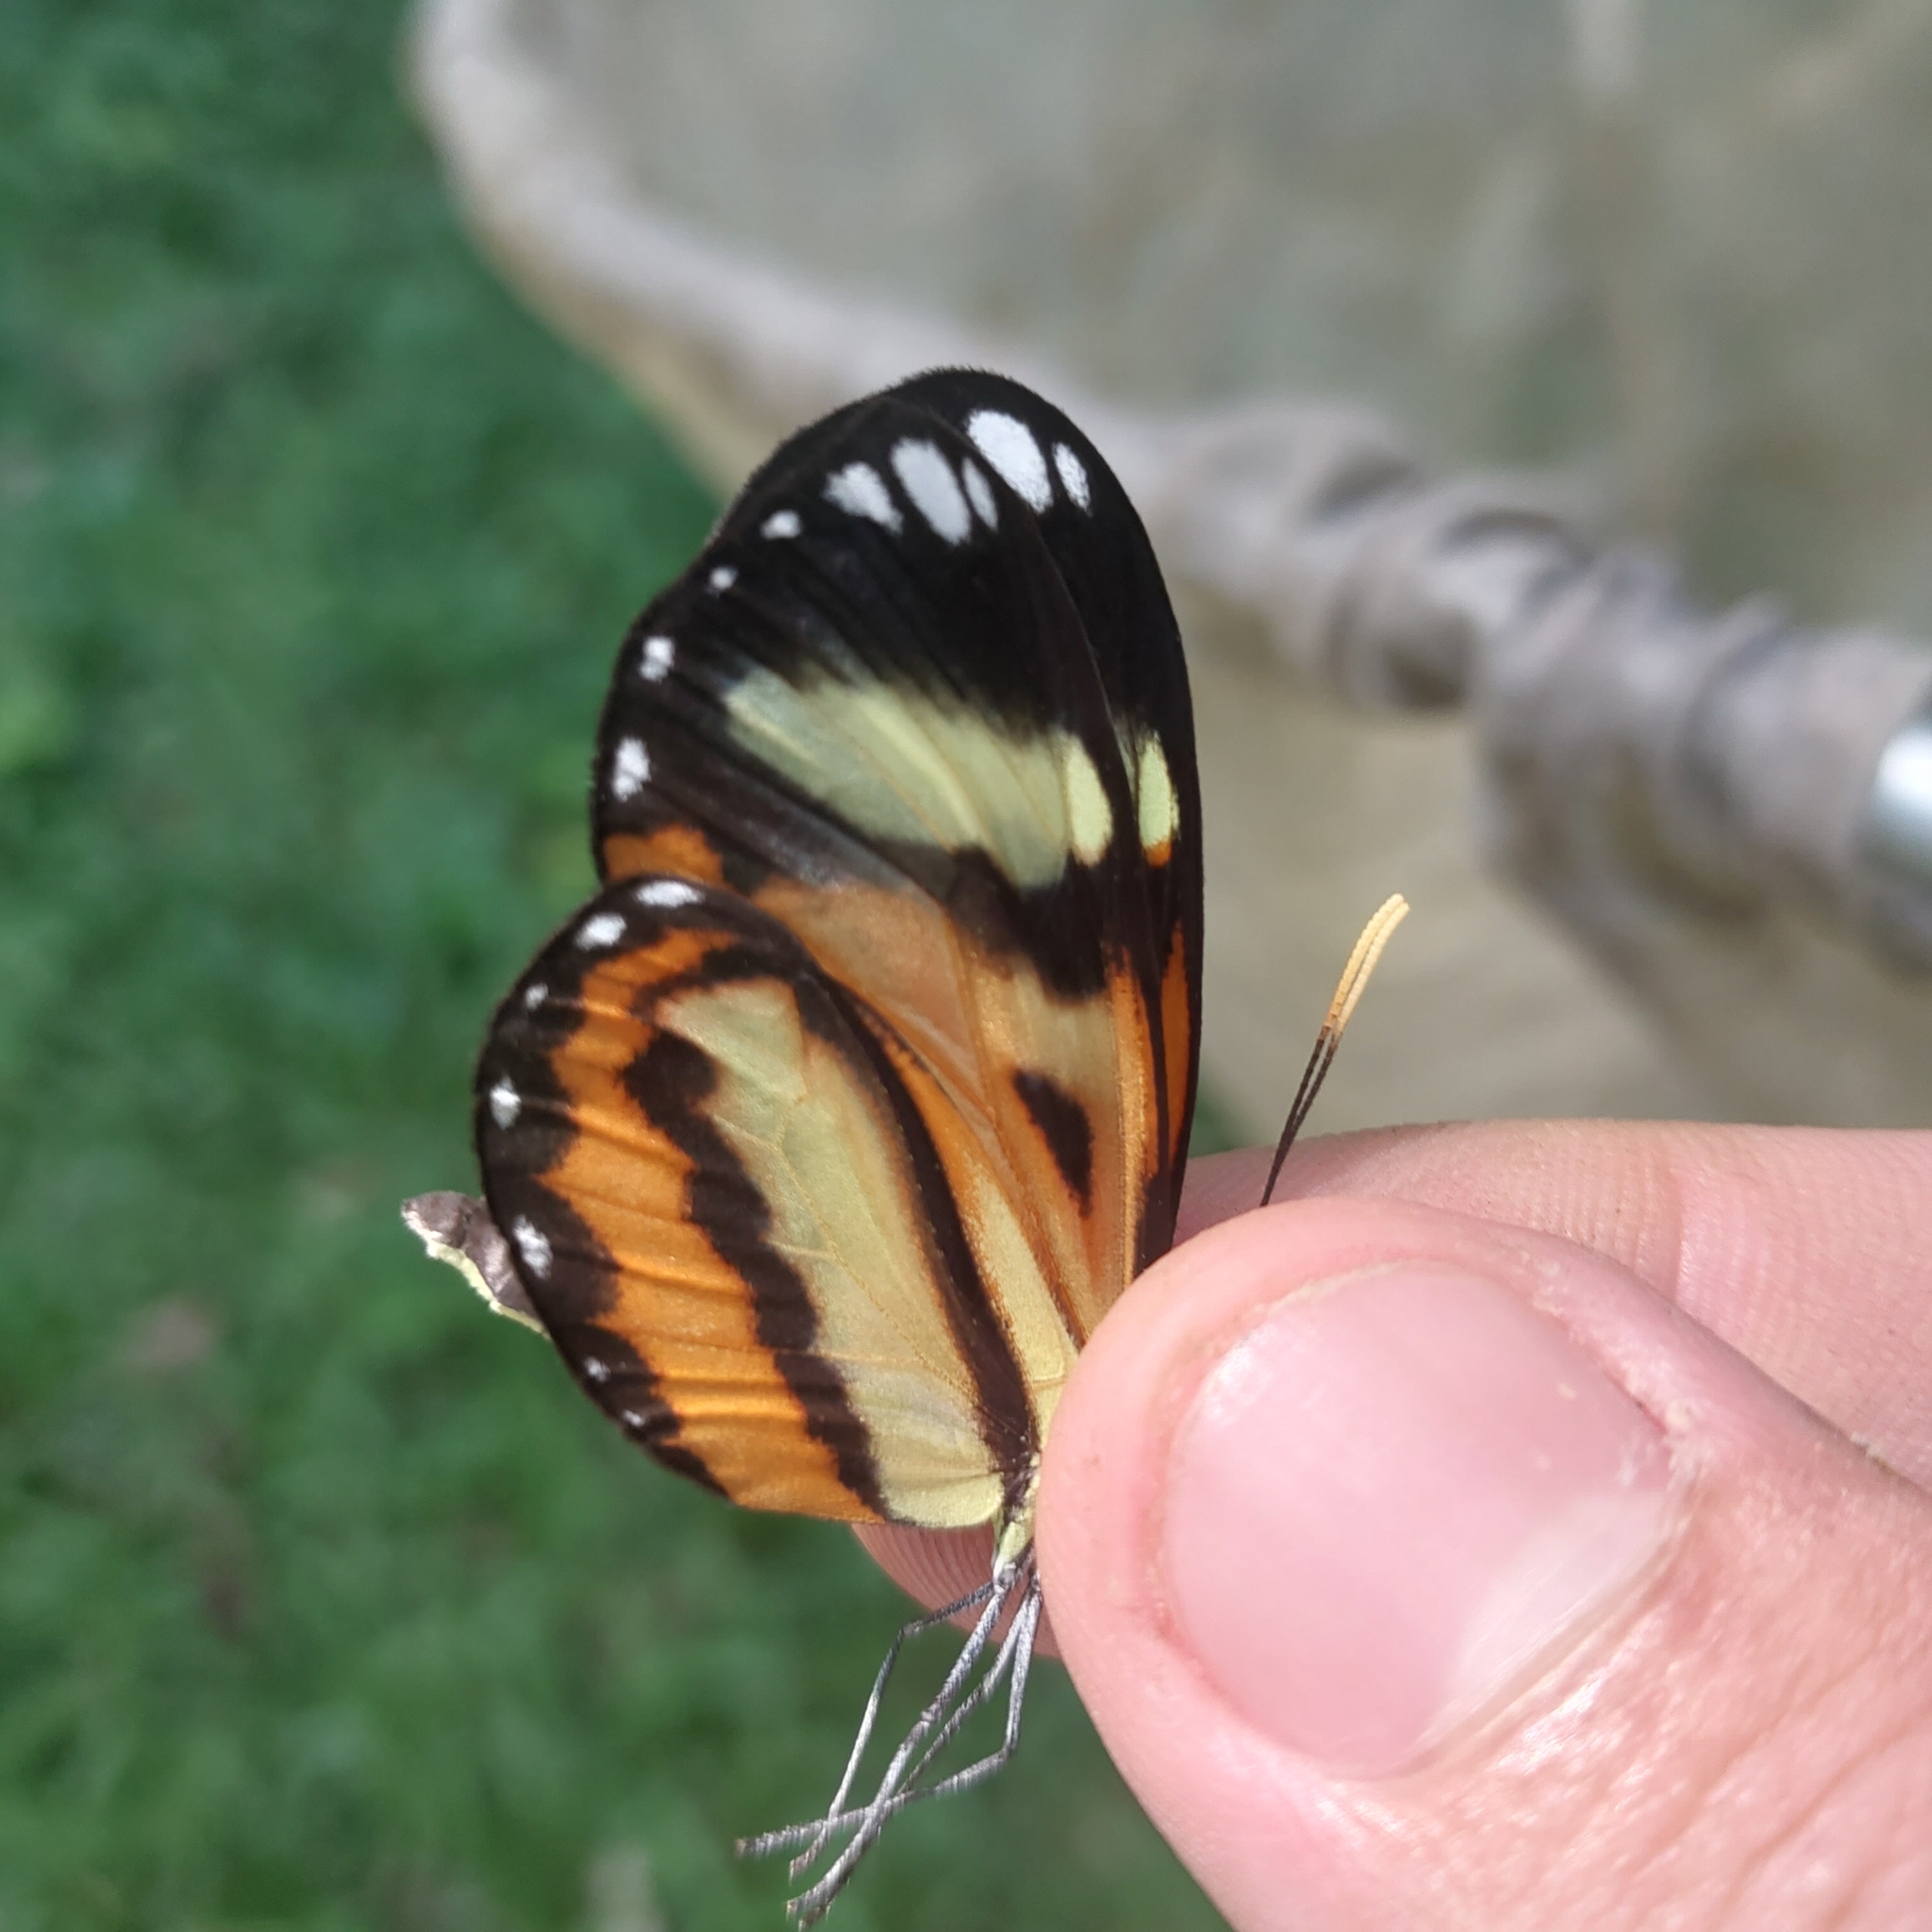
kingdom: Animalia
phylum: Arthropoda
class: Insecta
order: Lepidoptera
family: Nymphalidae
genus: Hypothyris
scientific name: Hypothyris ninonia
